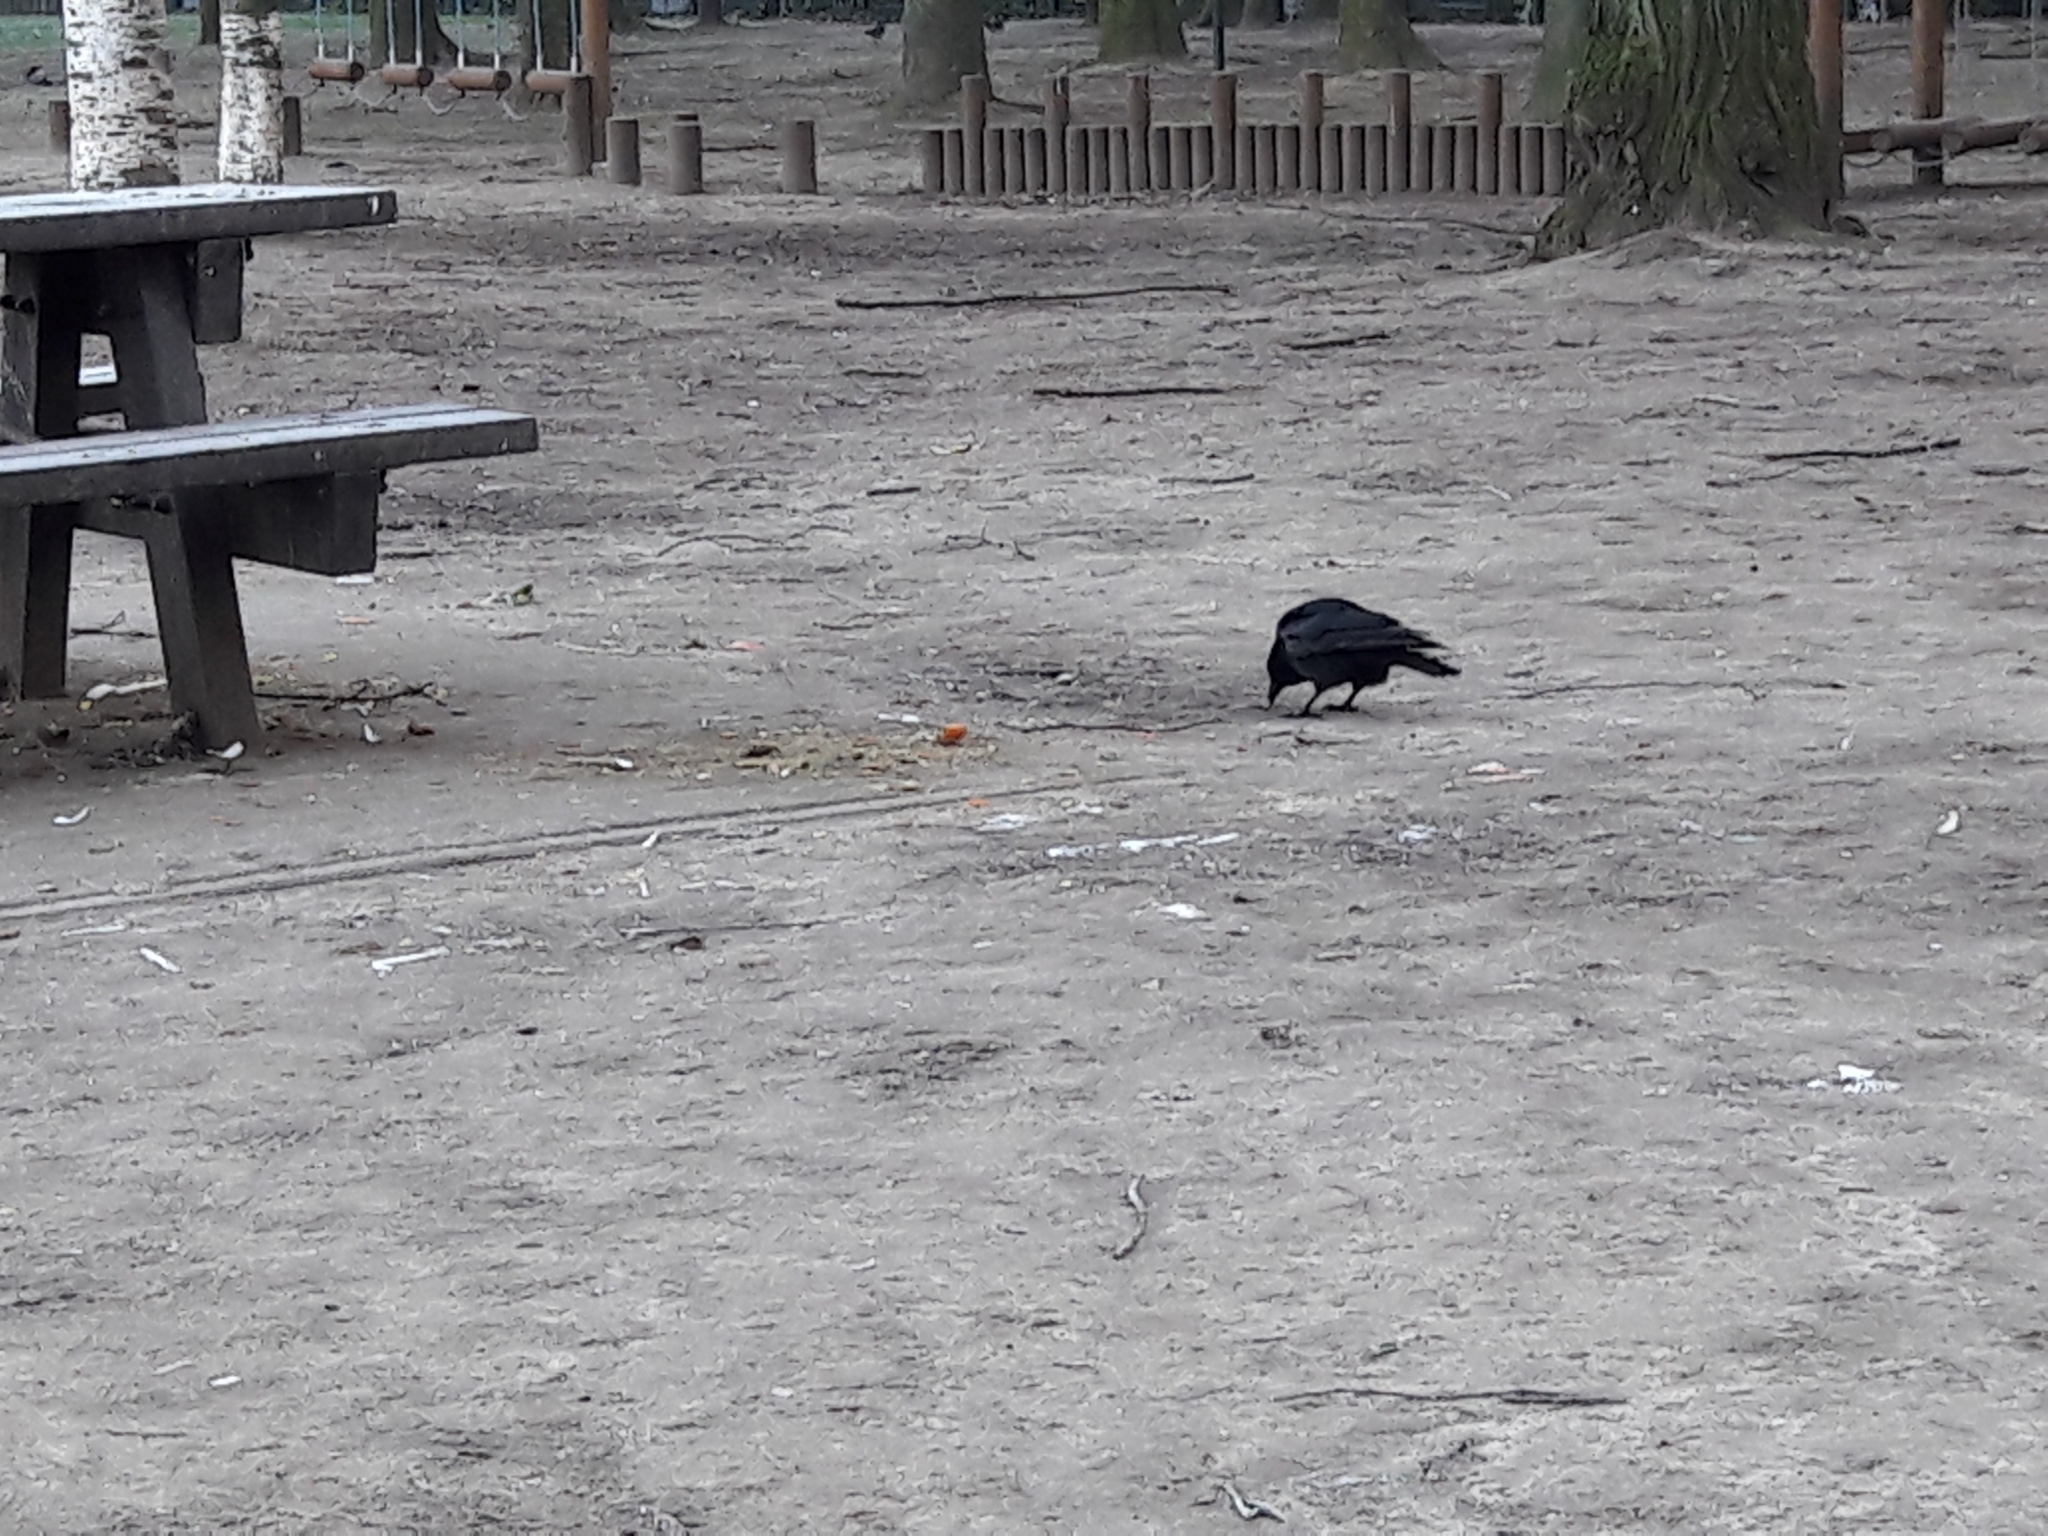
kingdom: Animalia
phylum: Chordata
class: Aves
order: Passeriformes
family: Corvidae
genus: Corvus
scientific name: Corvus corone
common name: Carrion crow
